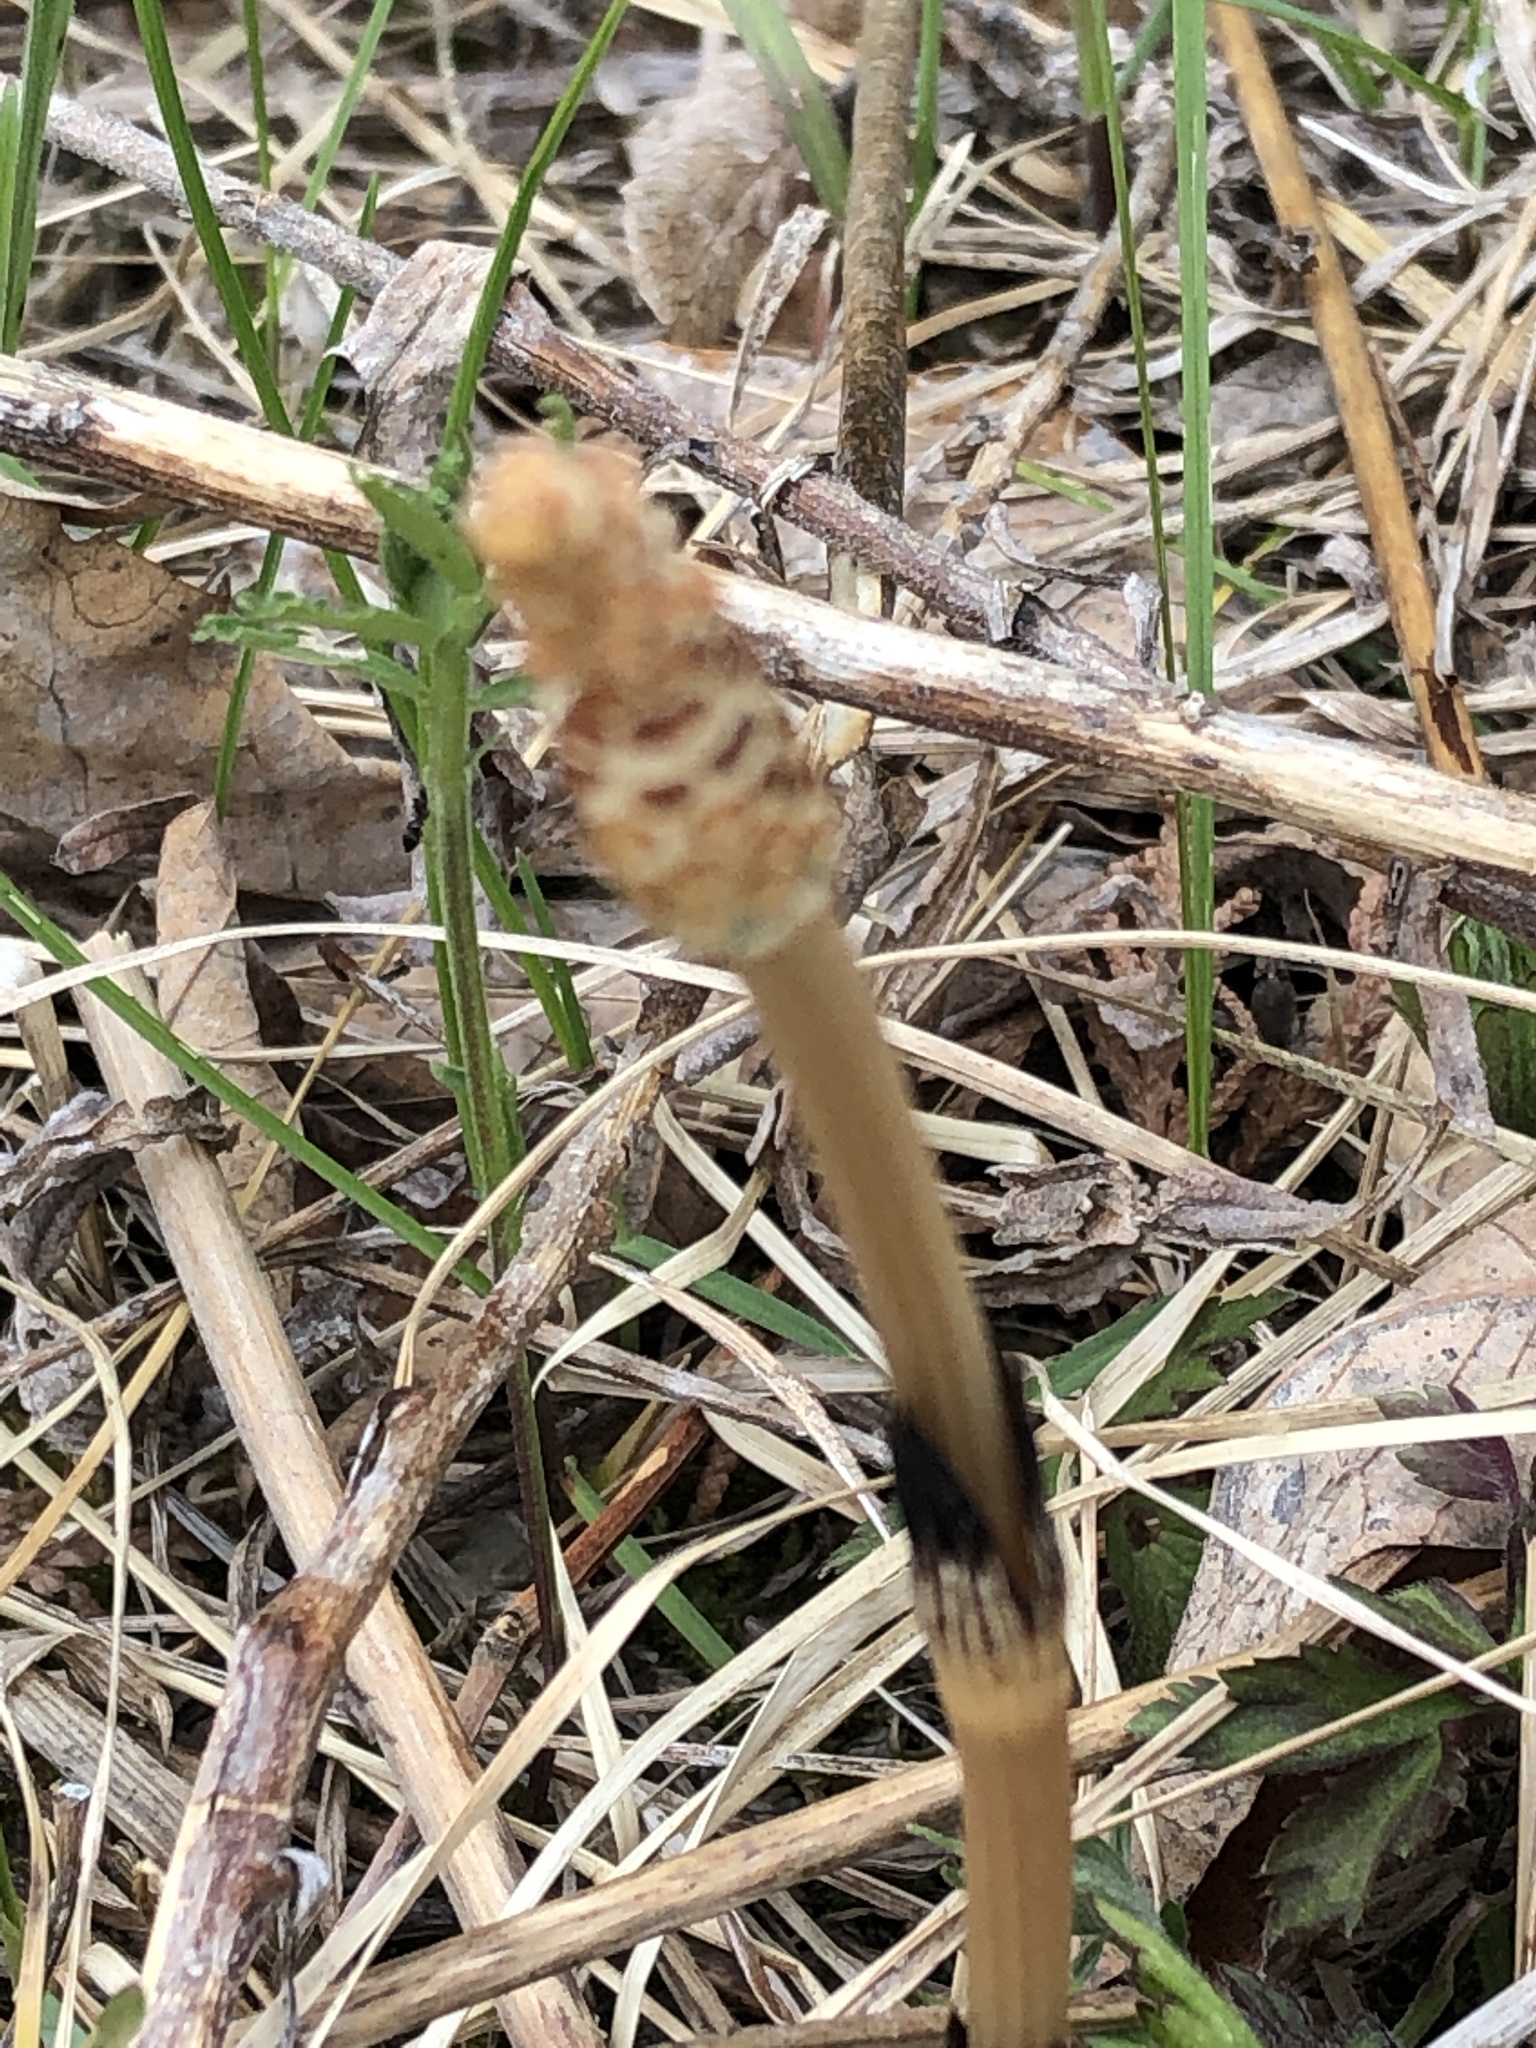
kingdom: Plantae
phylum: Tracheophyta
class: Polypodiopsida
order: Equisetales
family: Equisetaceae
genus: Equisetum
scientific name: Equisetum arvense
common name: Field horsetail
